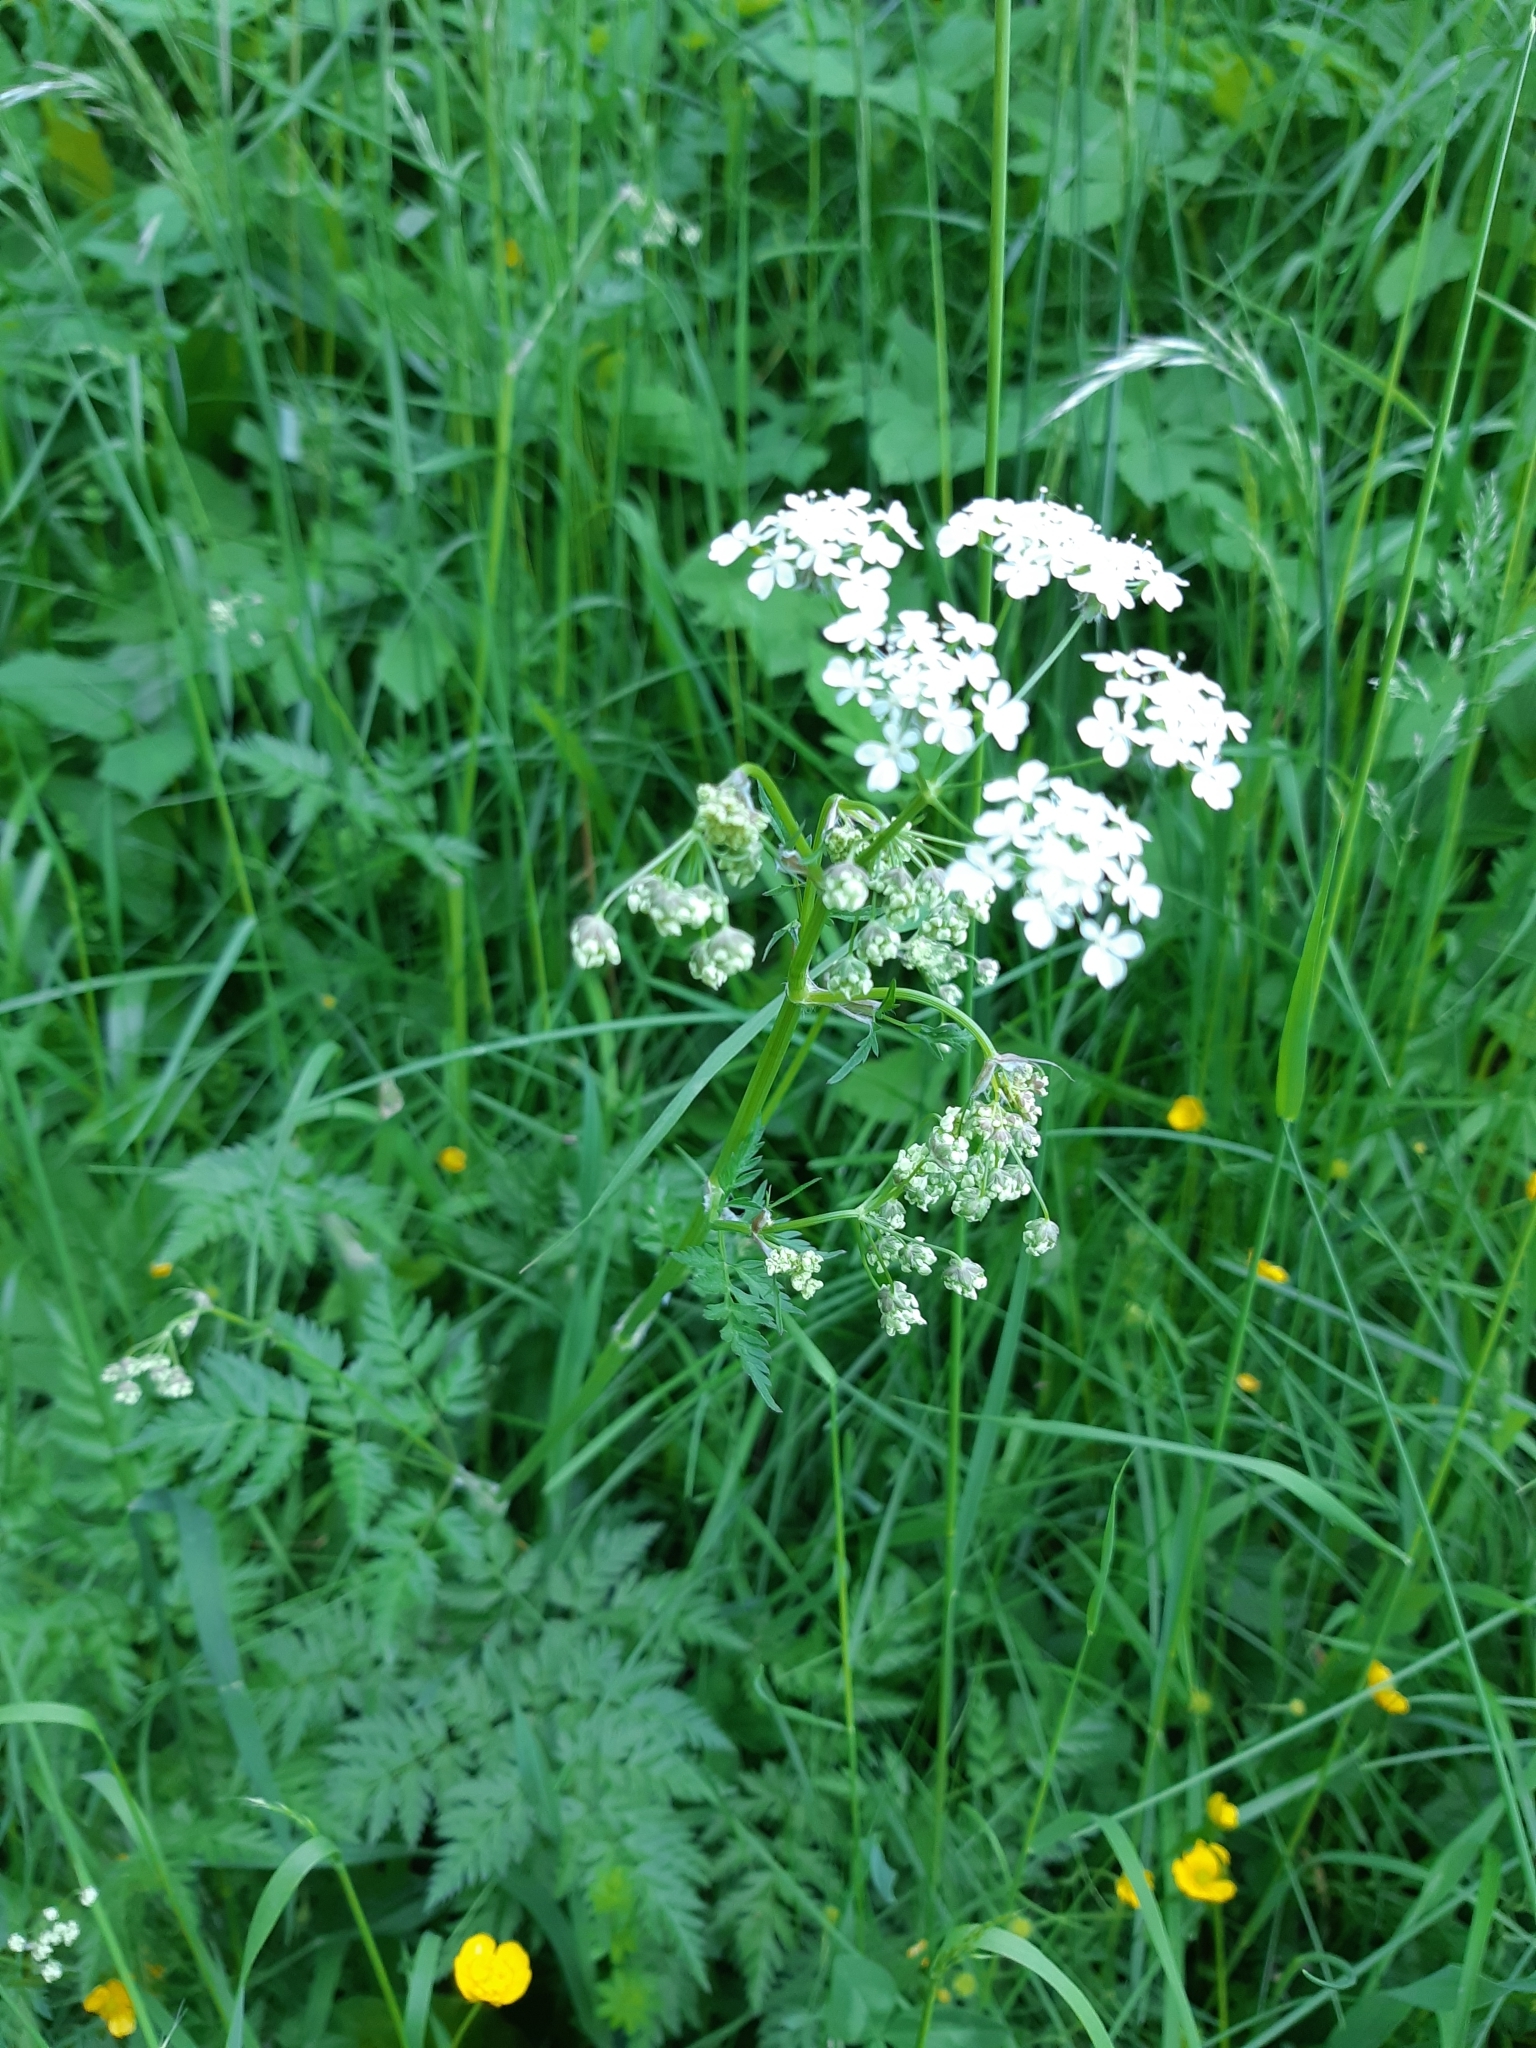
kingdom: Plantae
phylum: Tracheophyta
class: Magnoliopsida
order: Apiales
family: Apiaceae
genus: Anthriscus
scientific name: Anthriscus sylvestris
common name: Cow parsley
